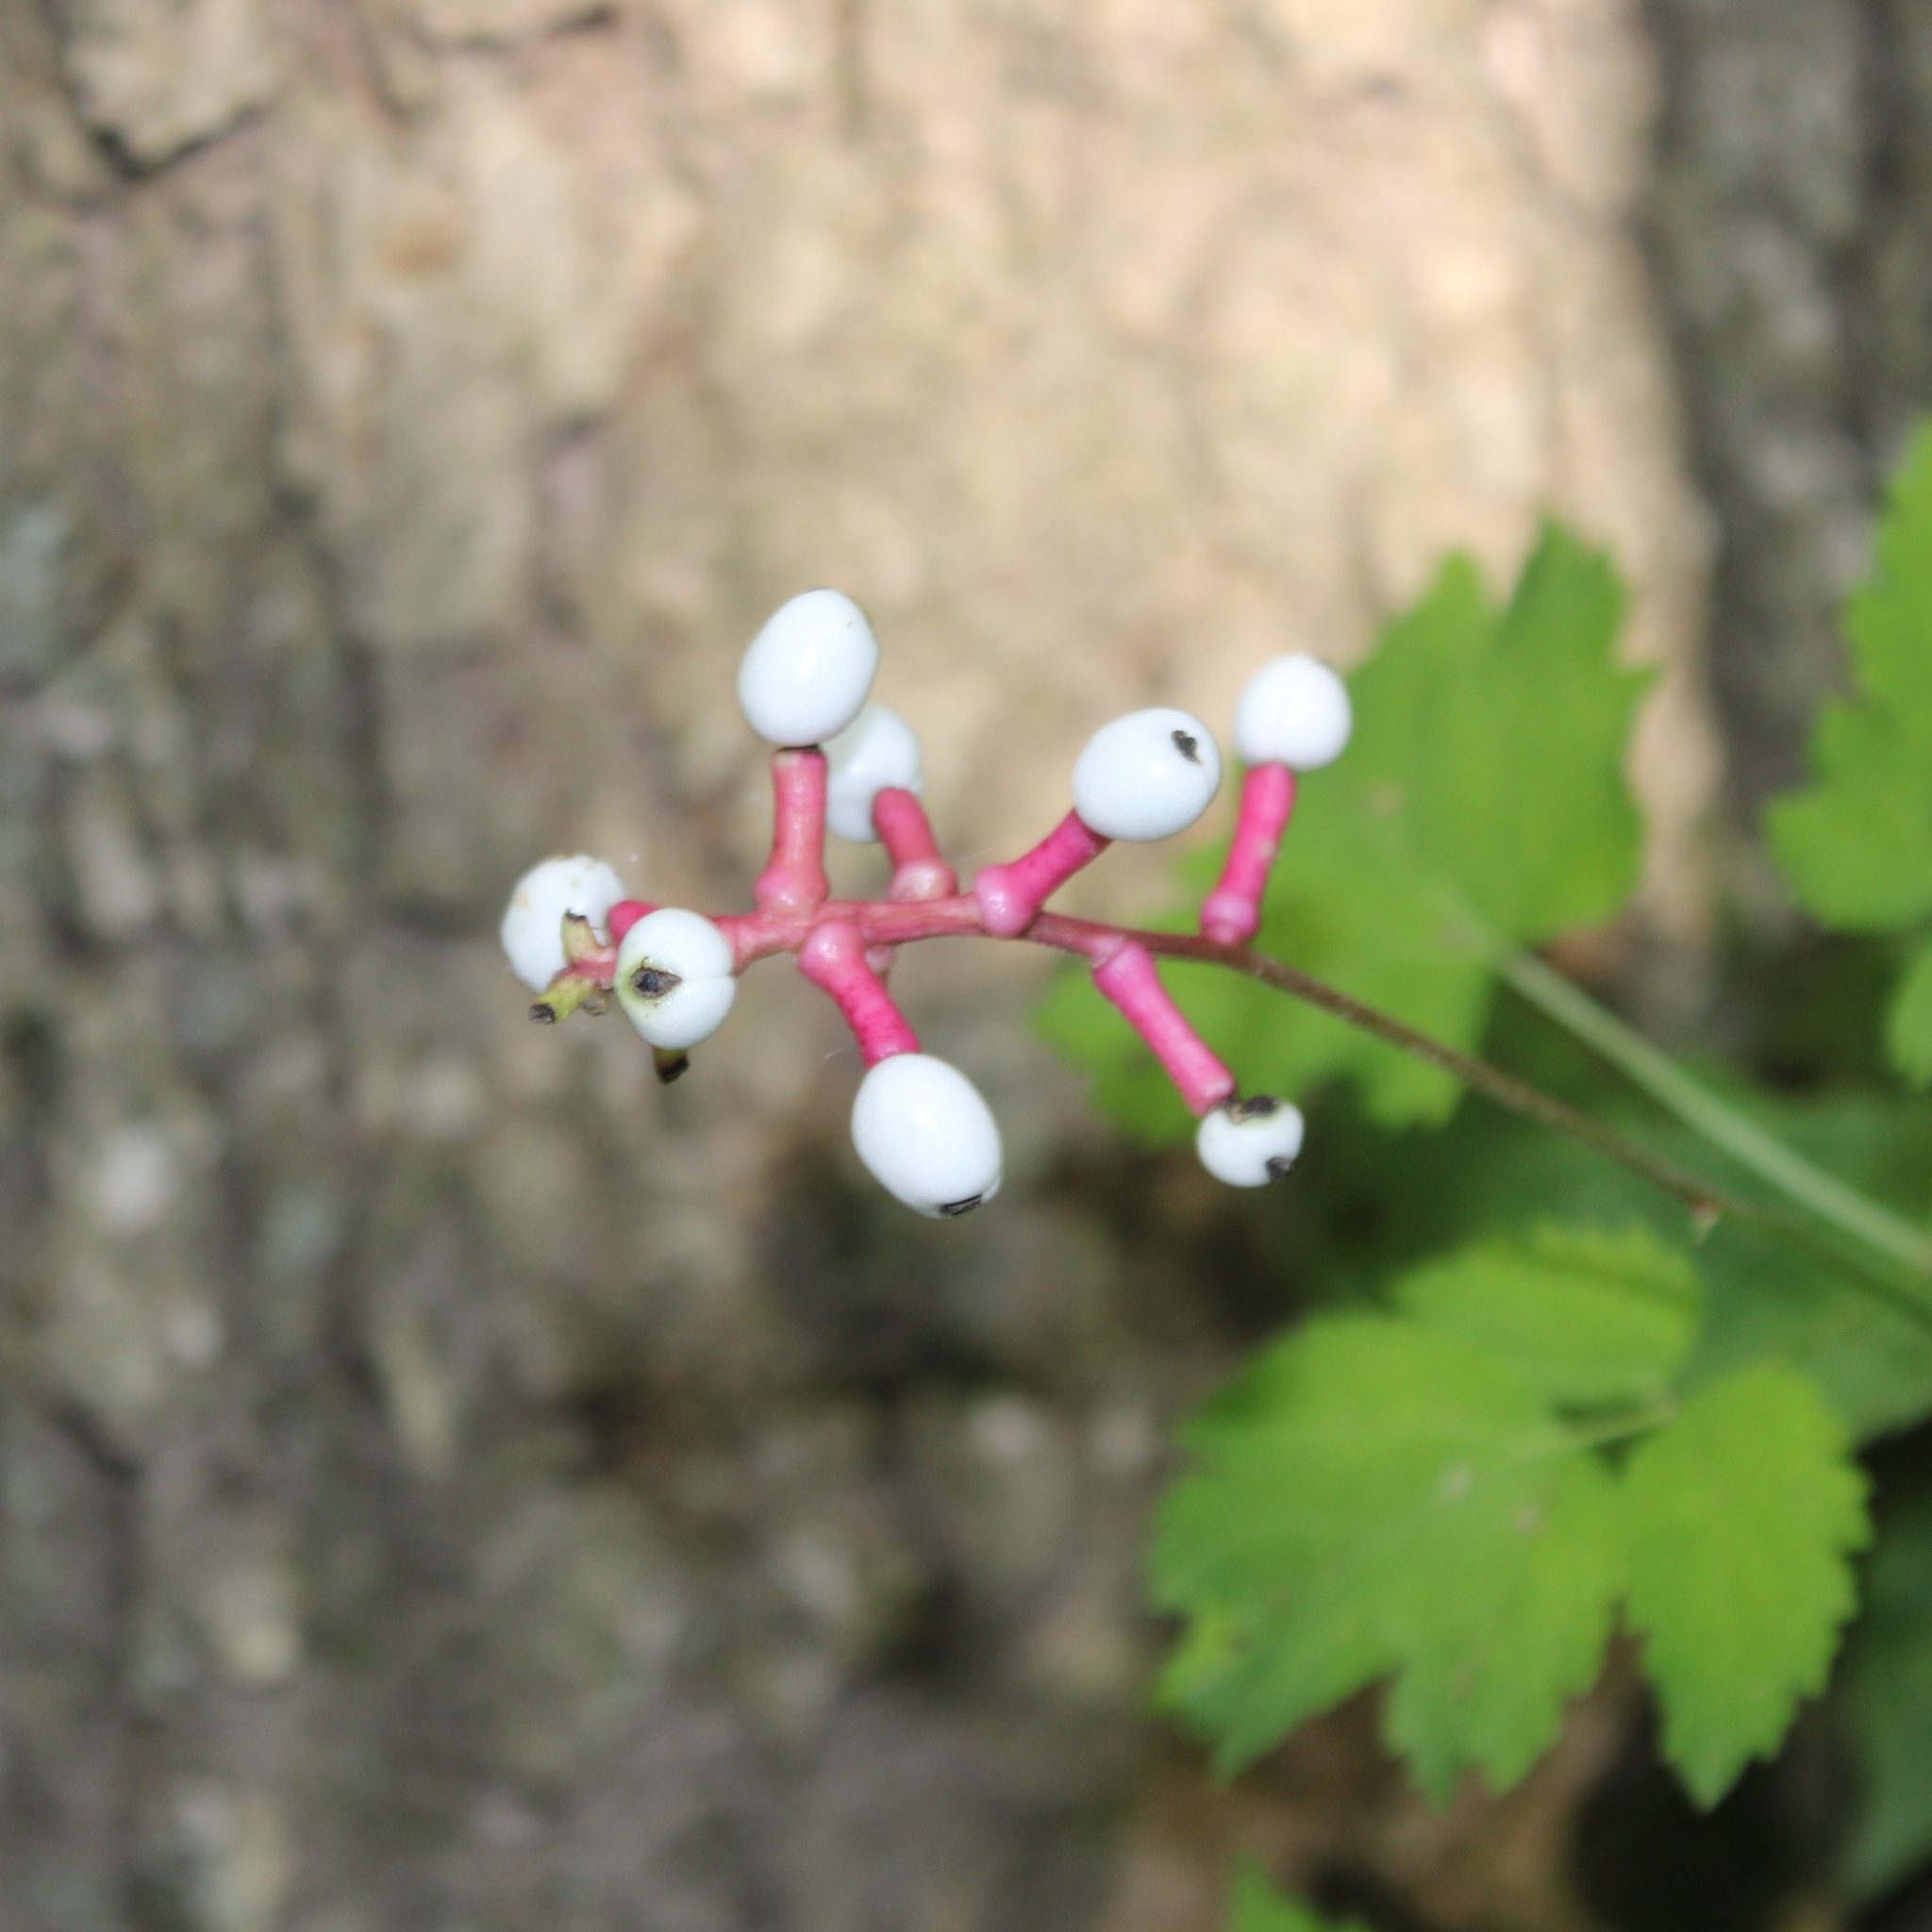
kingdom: Plantae
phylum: Tracheophyta
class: Magnoliopsida
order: Ranunculales
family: Ranunculaceae
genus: Actaea
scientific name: Actaea pachypoda
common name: Doll's-eyes
